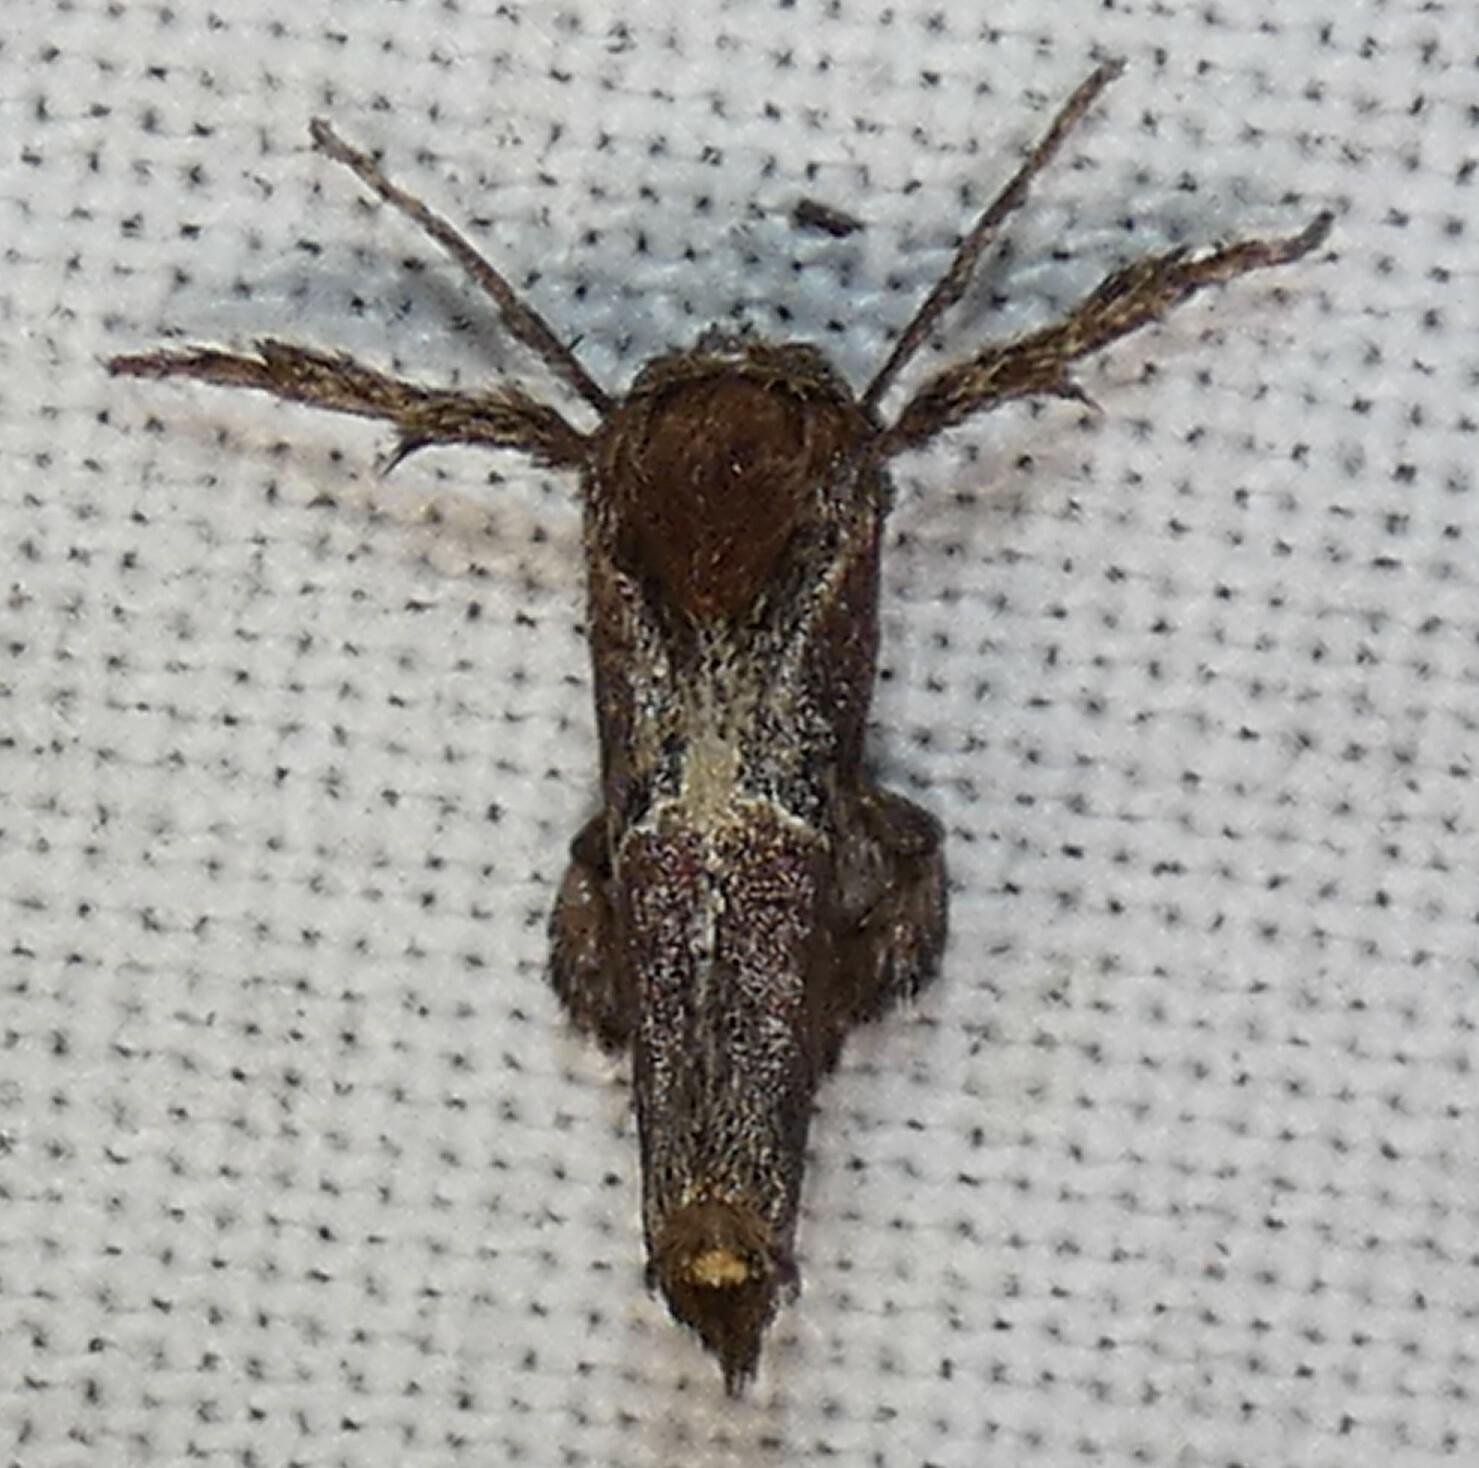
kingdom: Animalia
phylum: Arthropoda
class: Insecta
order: Lepidoptera
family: Limacodidae
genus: Adoneta
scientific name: Adoneta spinuloides
